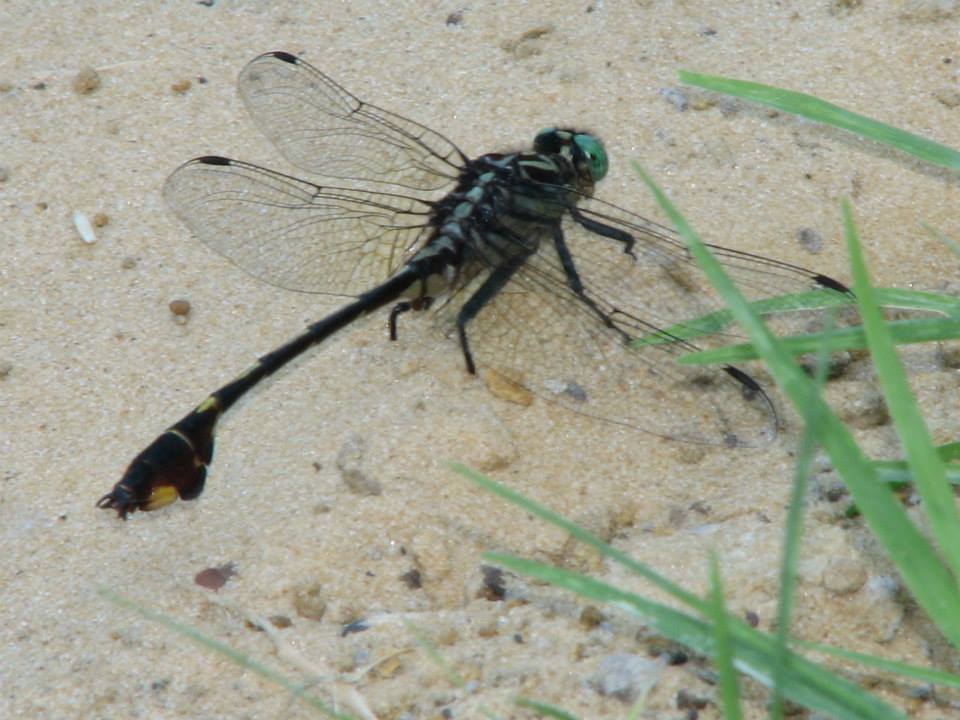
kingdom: Animalia
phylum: Arthropoda
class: Insecta
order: Odonata
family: Gomphidae
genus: Gomphurus
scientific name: Gomphurus vastus
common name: Cobra clubtail
